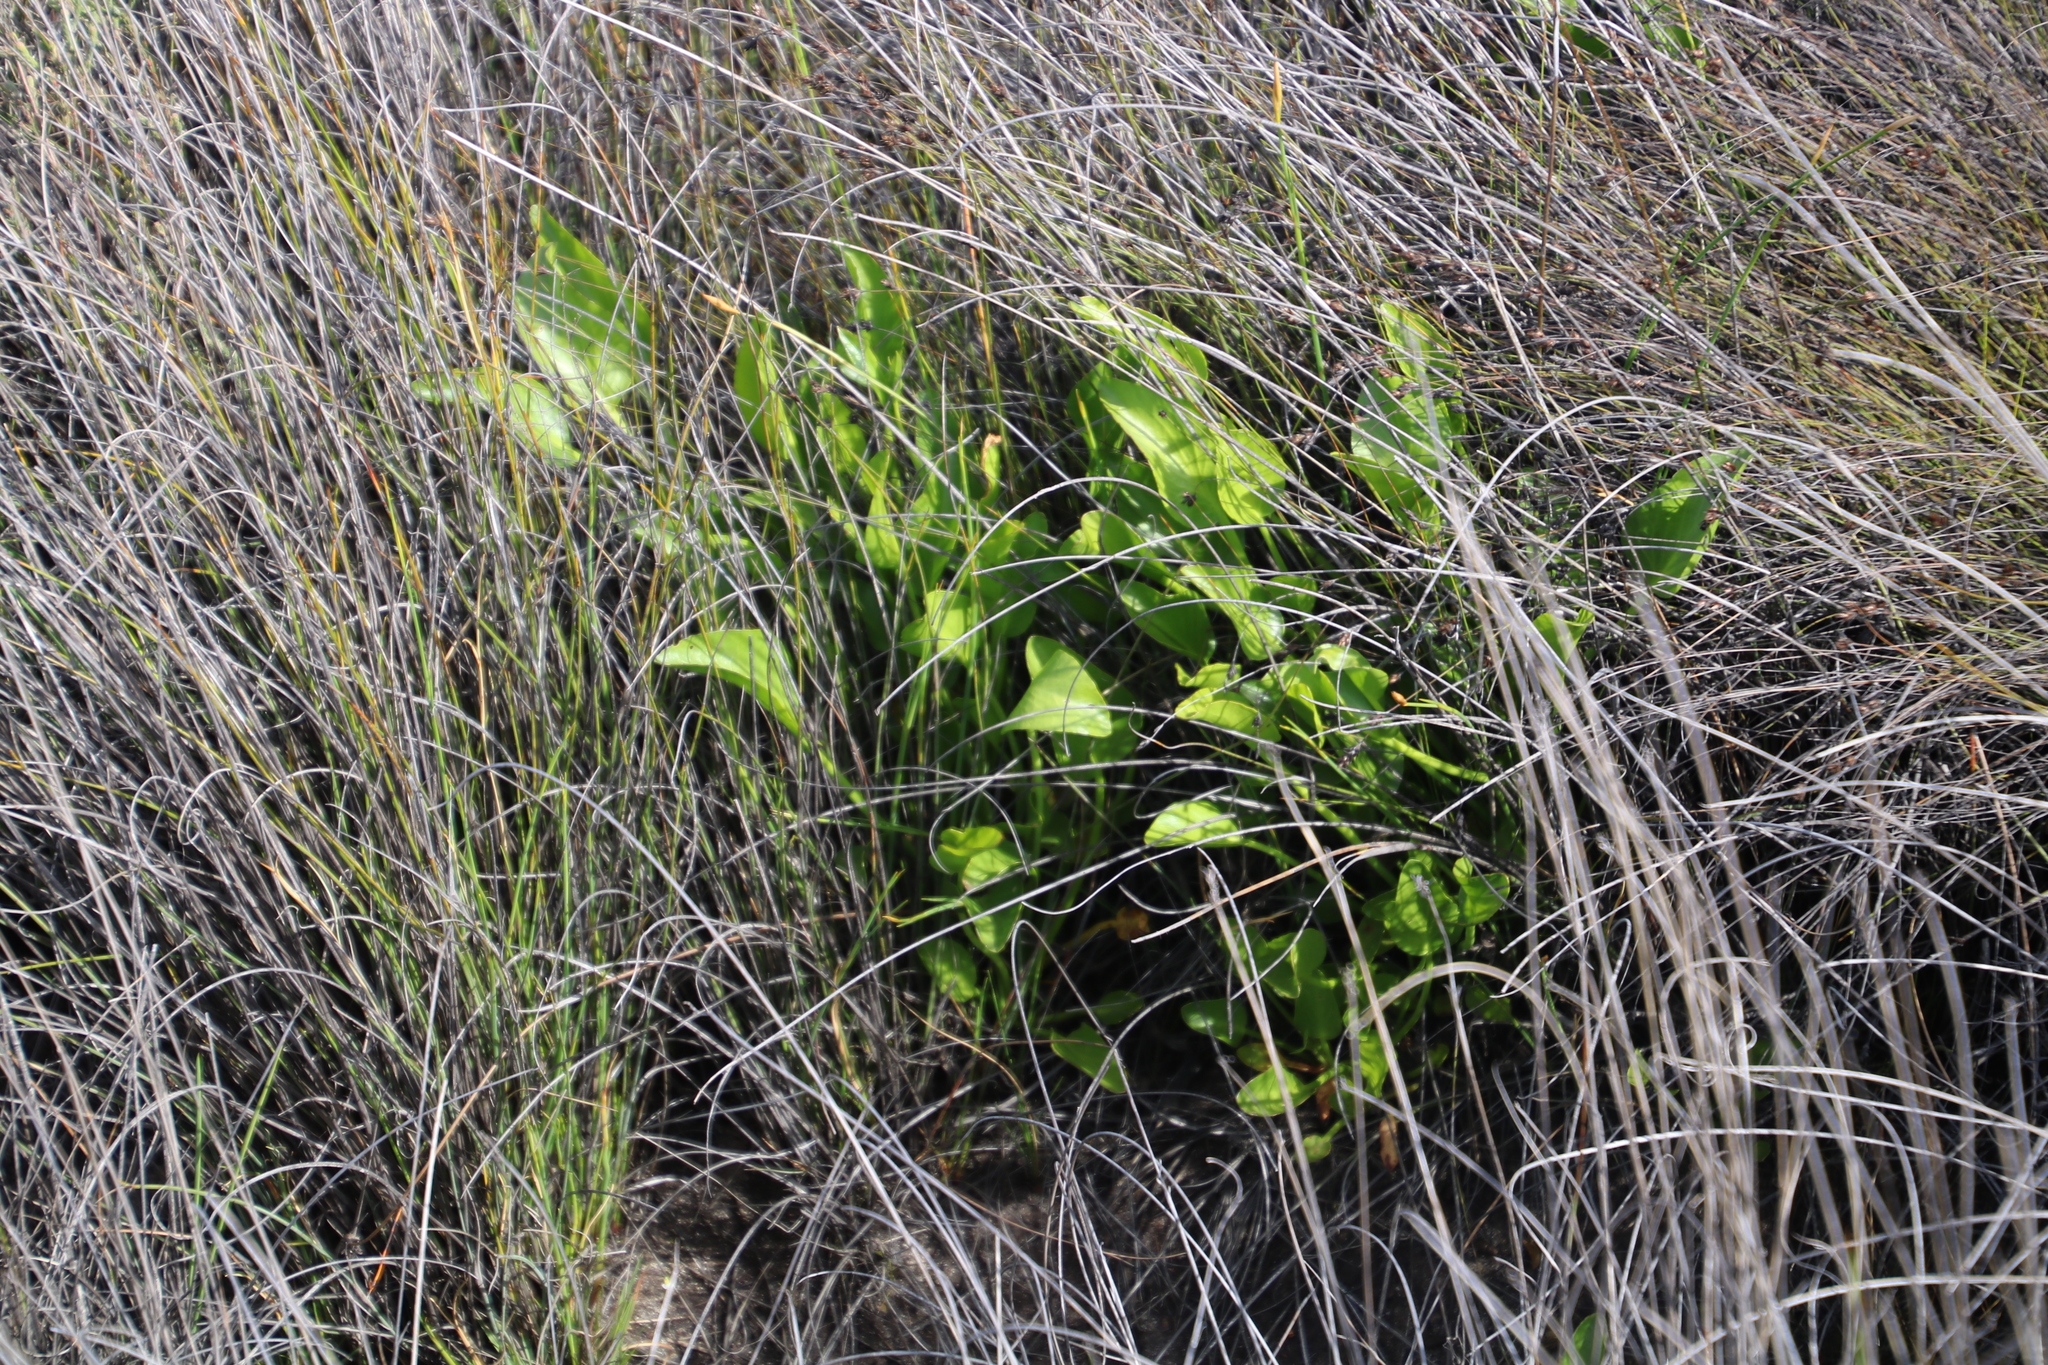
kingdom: Plantae
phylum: Tracheophyta
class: Magnoliopsida
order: Asterales
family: Menyanthaceae
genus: Villarsia
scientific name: Villarsia capensis
